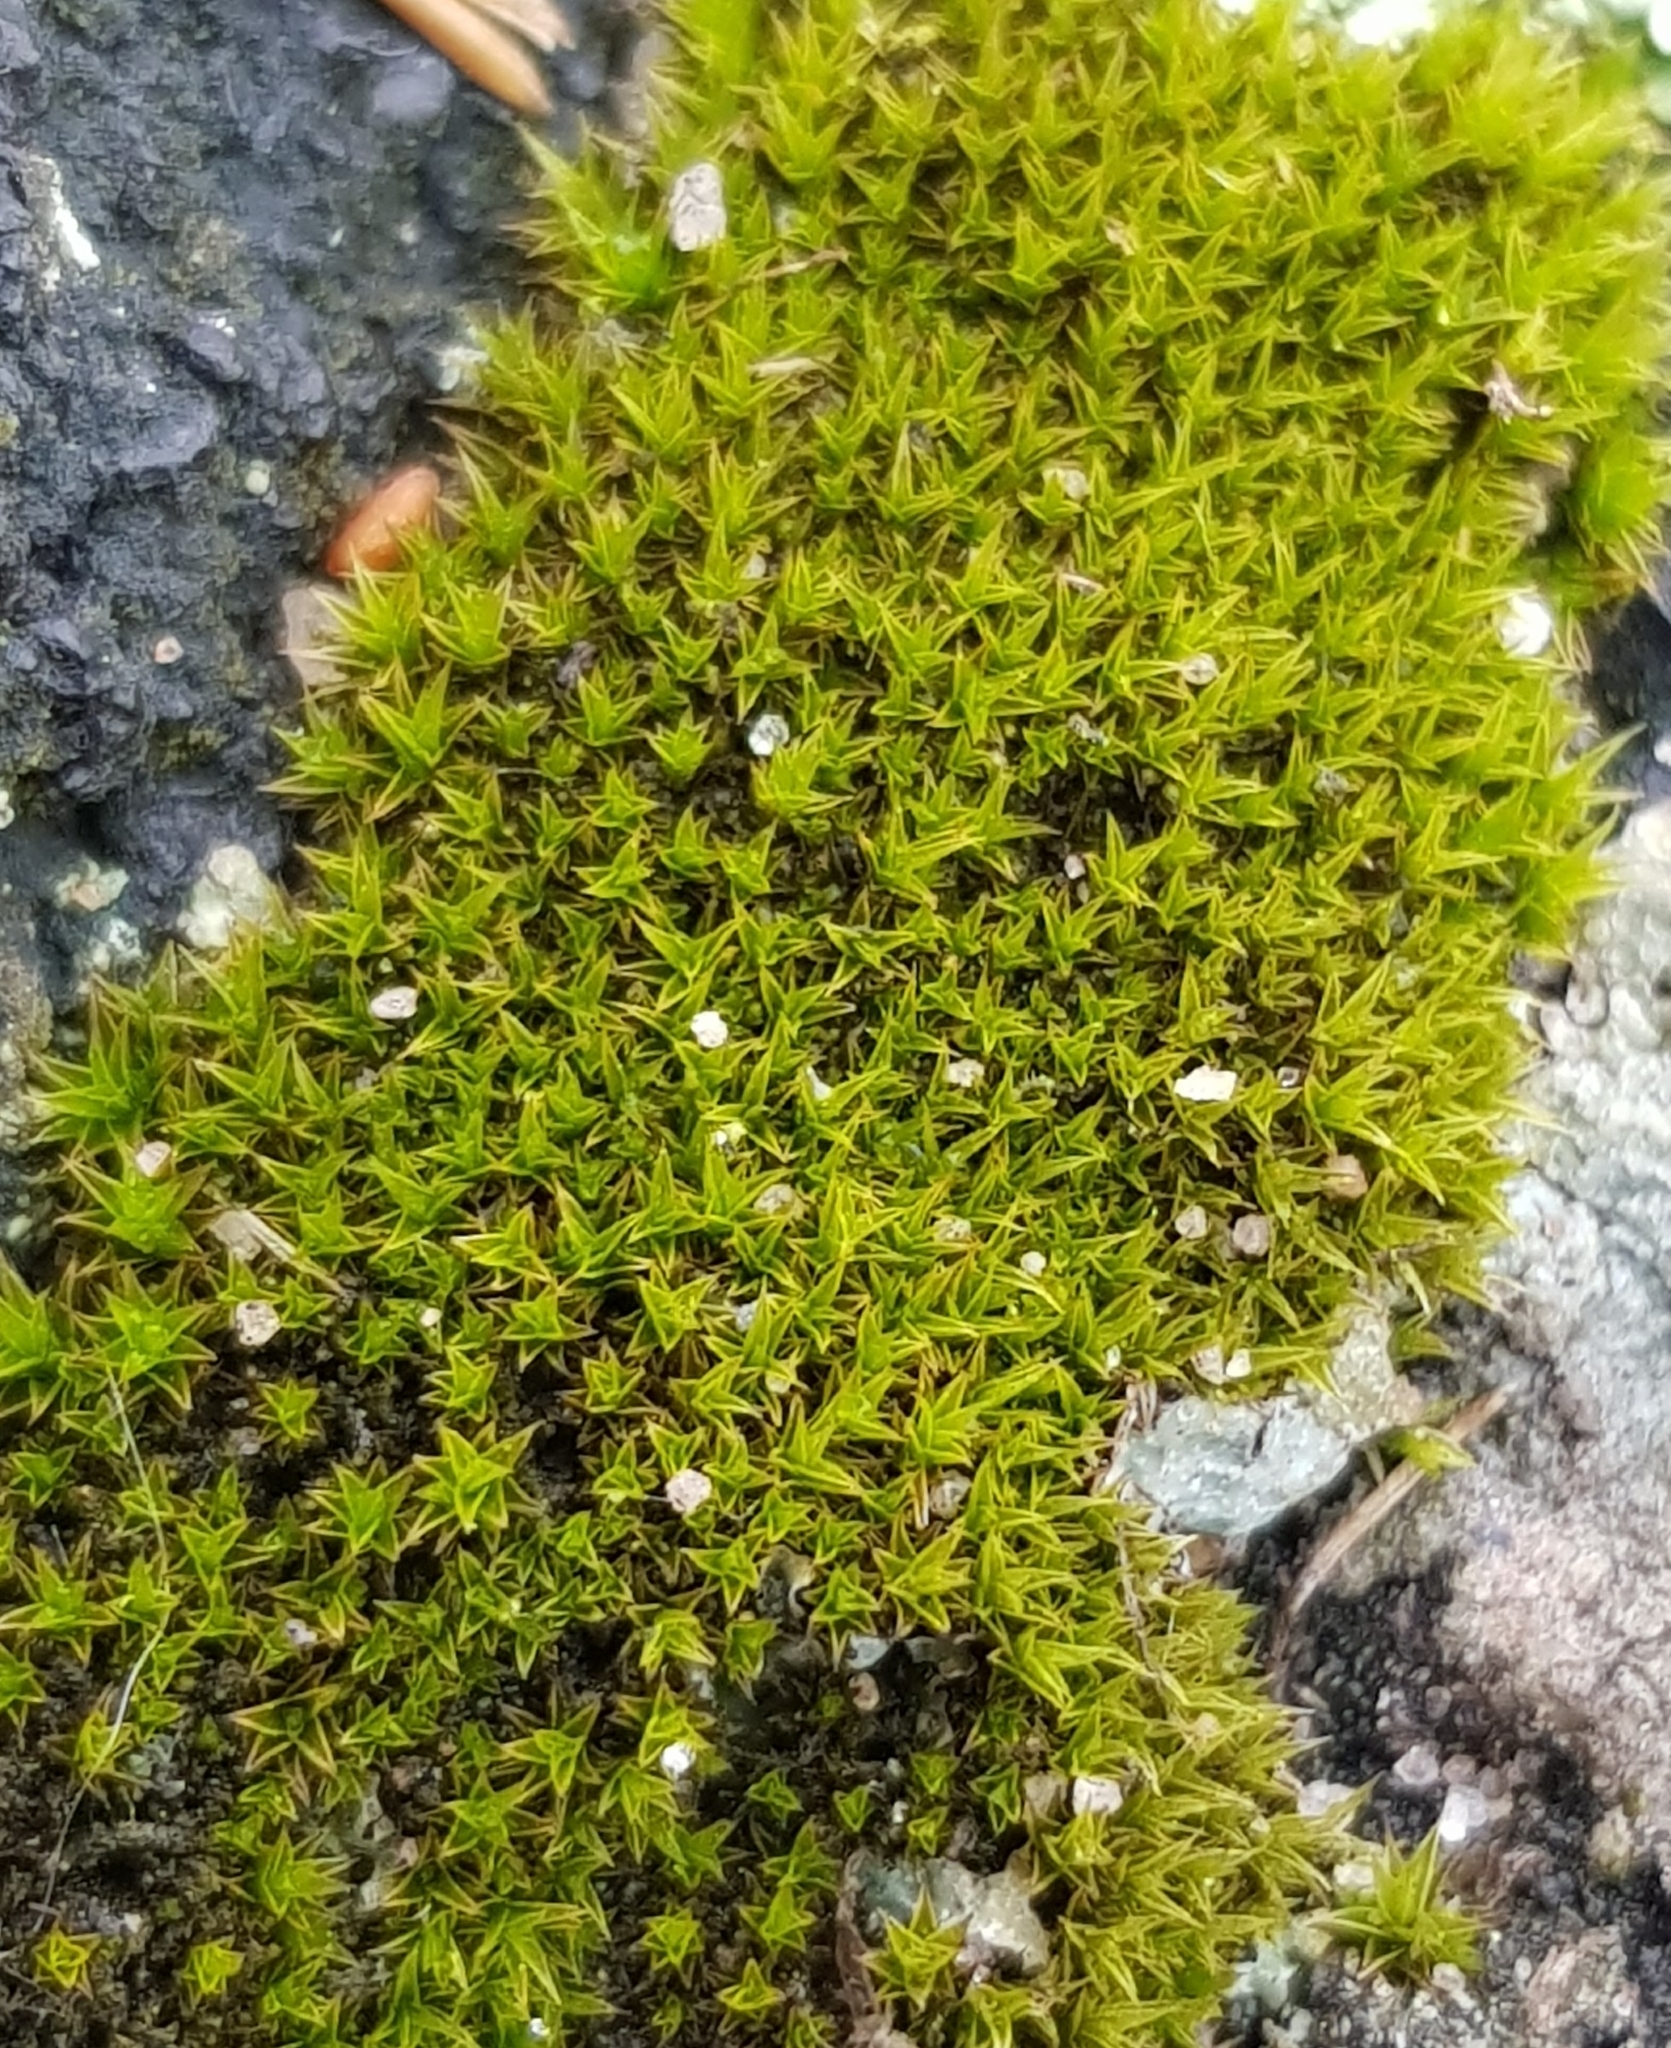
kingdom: Plantae
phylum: Bryophyta
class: Bryopsida
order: Dicranales
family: Ditrichaceae
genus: Ceratodon
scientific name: Ceratodon purpureus
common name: Redshank
